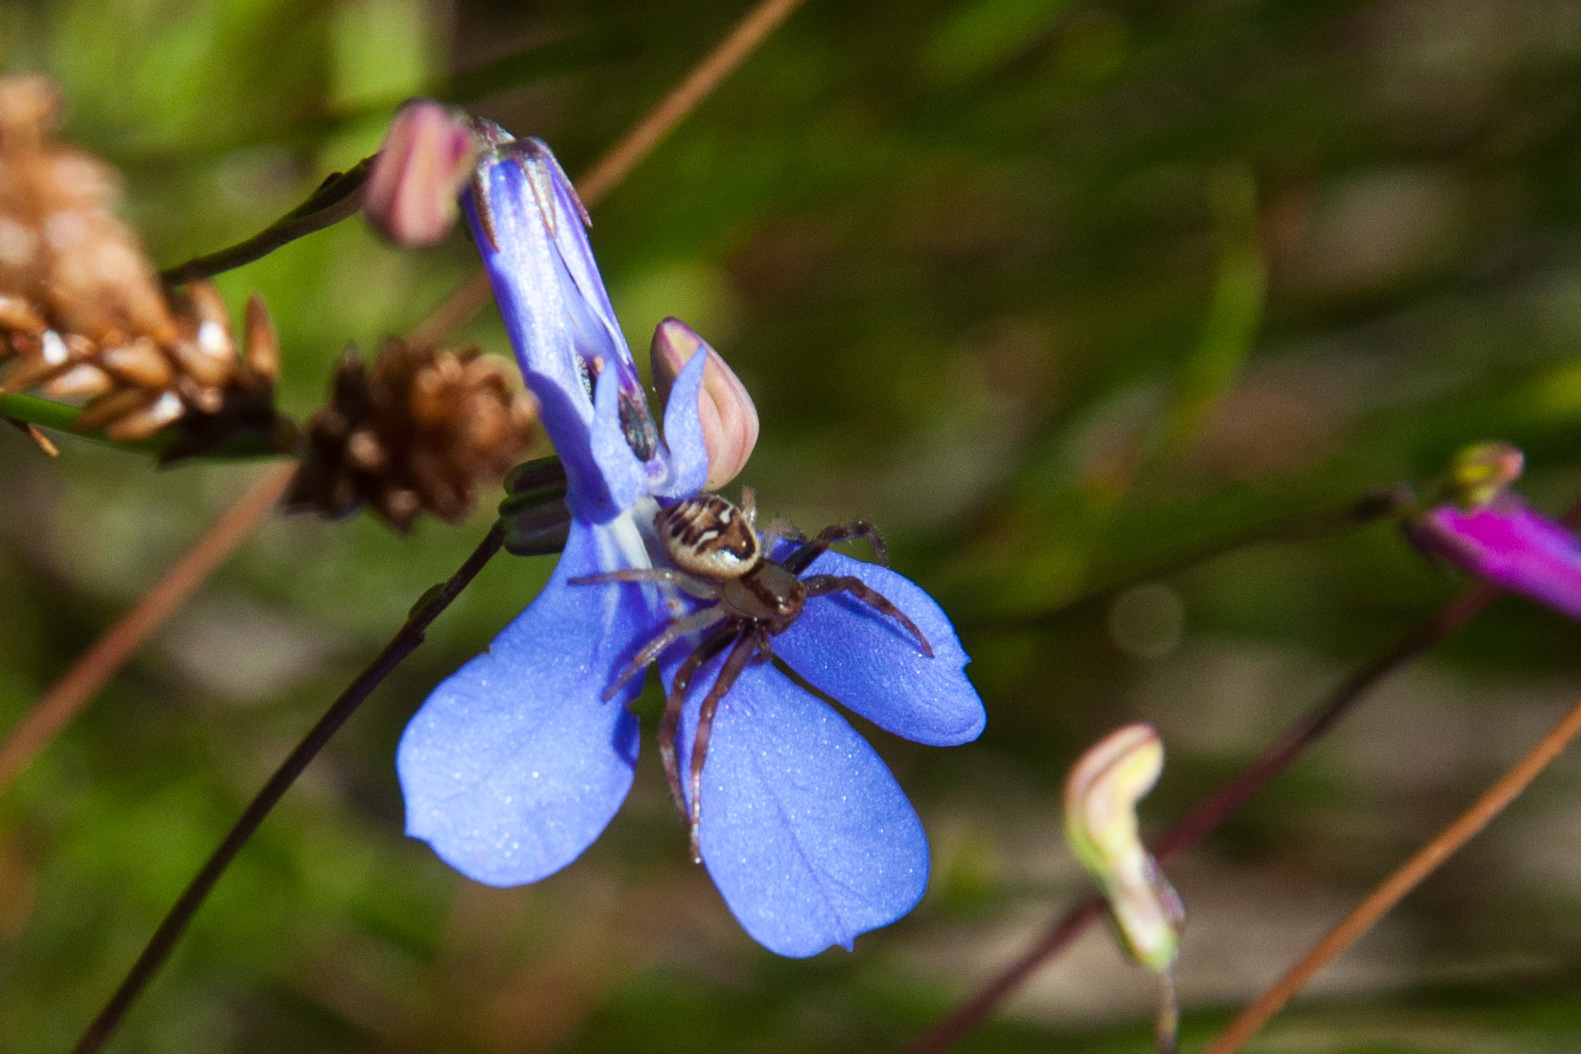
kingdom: Animalia
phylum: Arthropoda
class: Arachnida
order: Araneae
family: Thomisidae
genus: Synema
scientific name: Synema imitatrix
